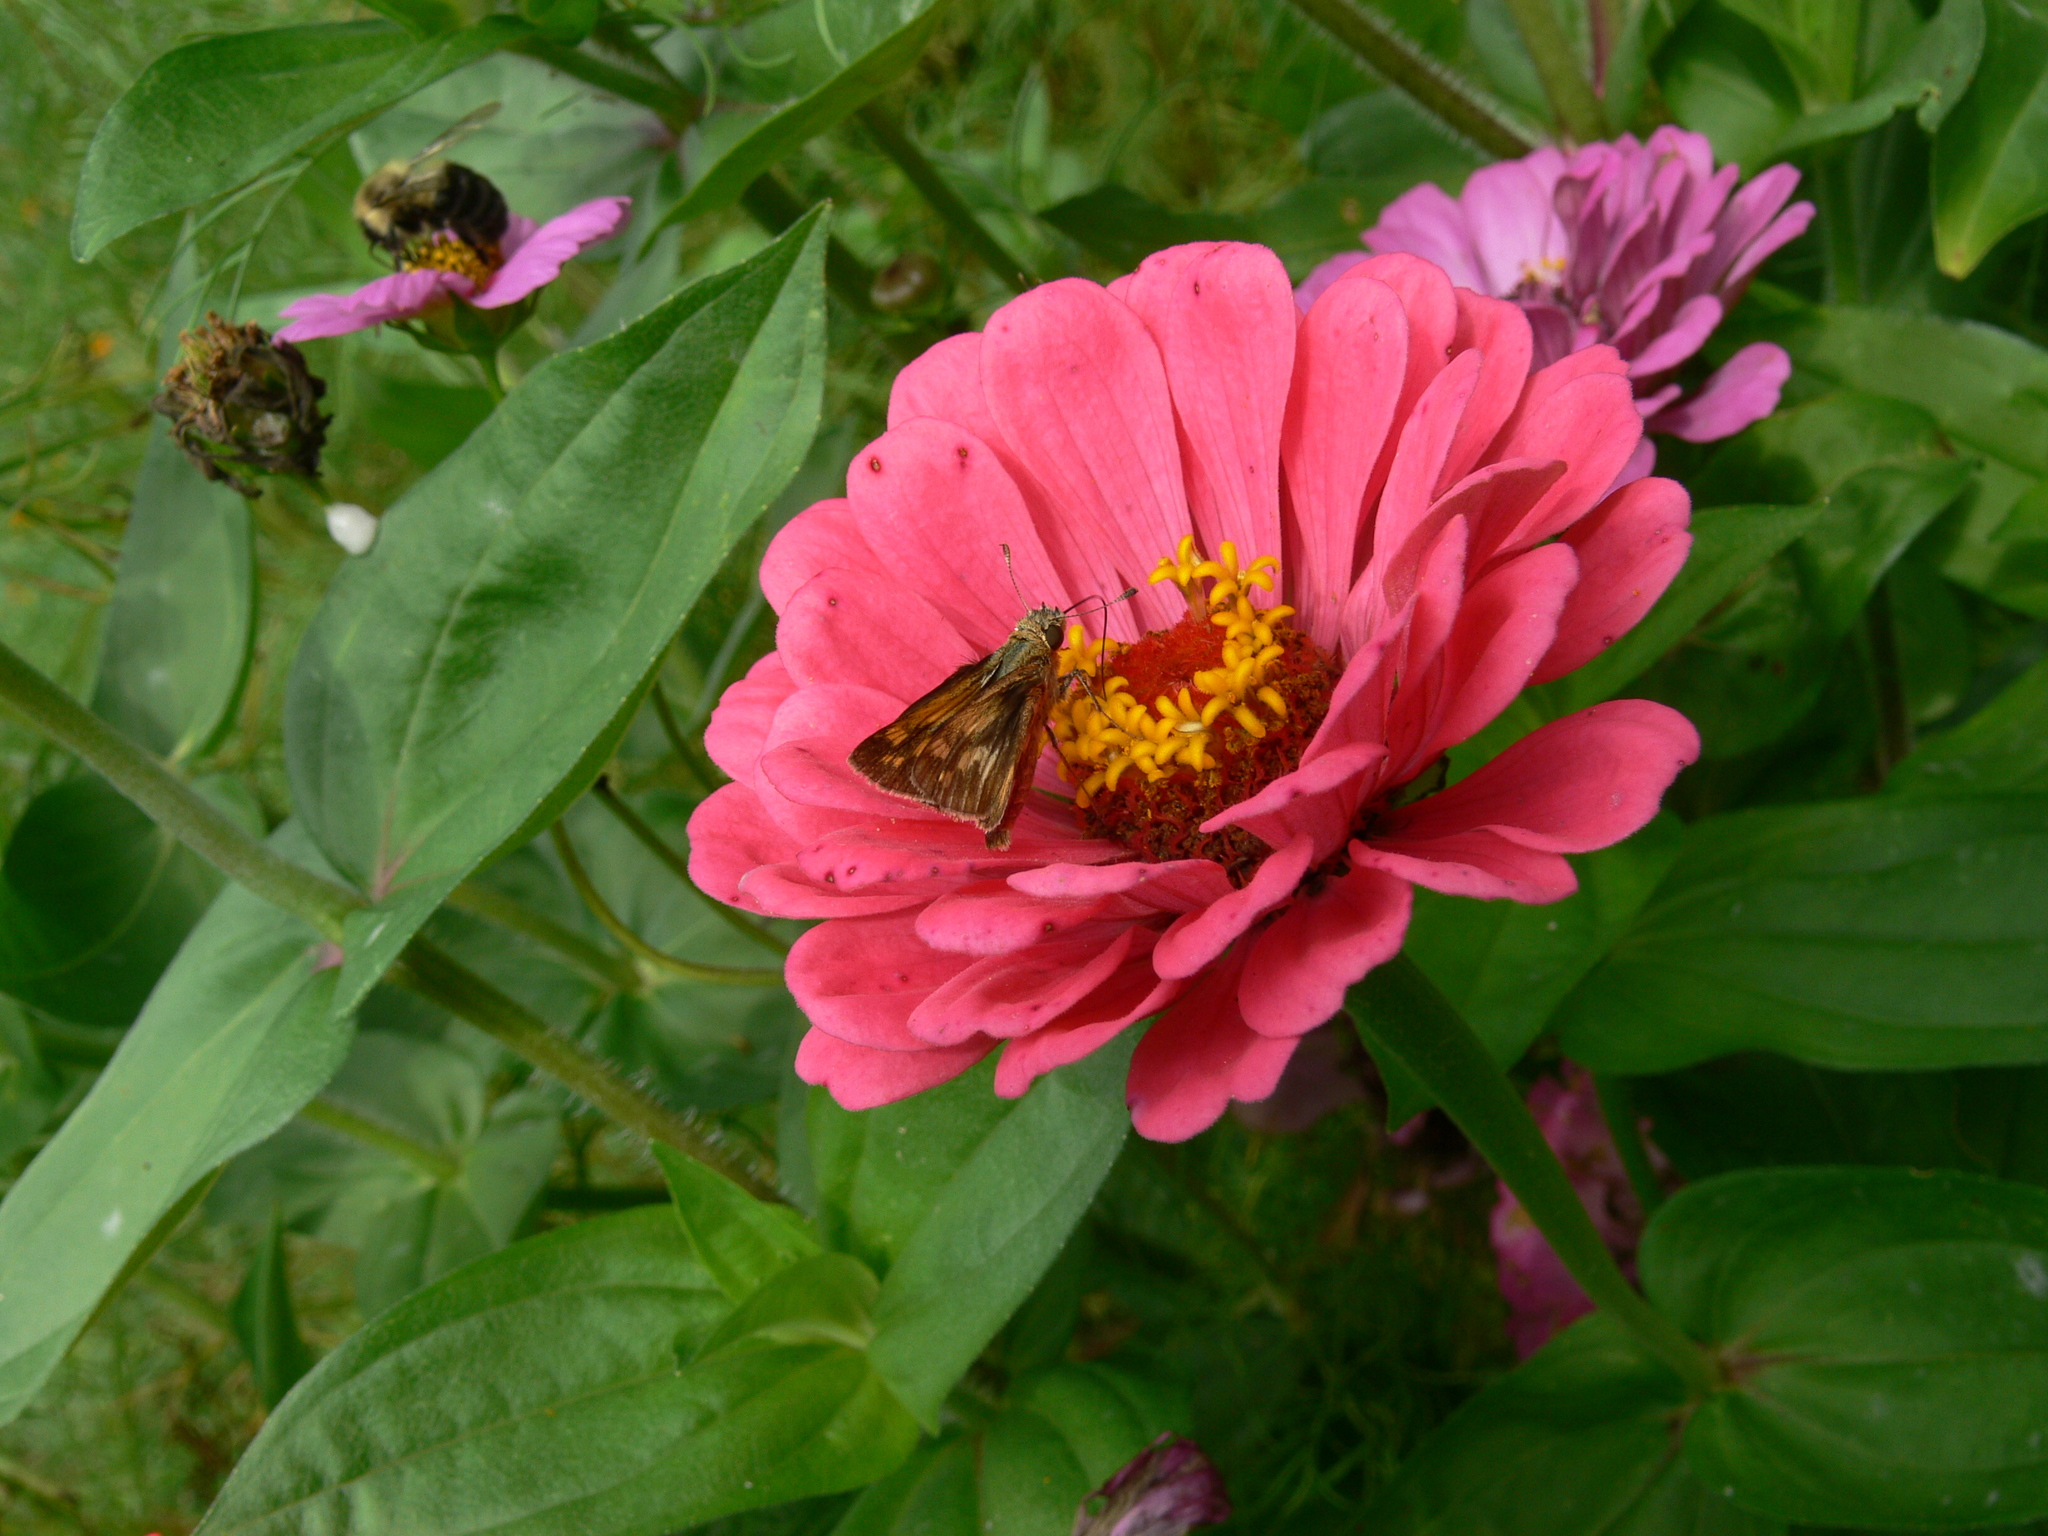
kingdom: Animalia
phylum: Arthropoda
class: Insecta
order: Lepidoptera
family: Hesperiidae
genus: Polites
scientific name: Polites coras
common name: Peck's skipper
